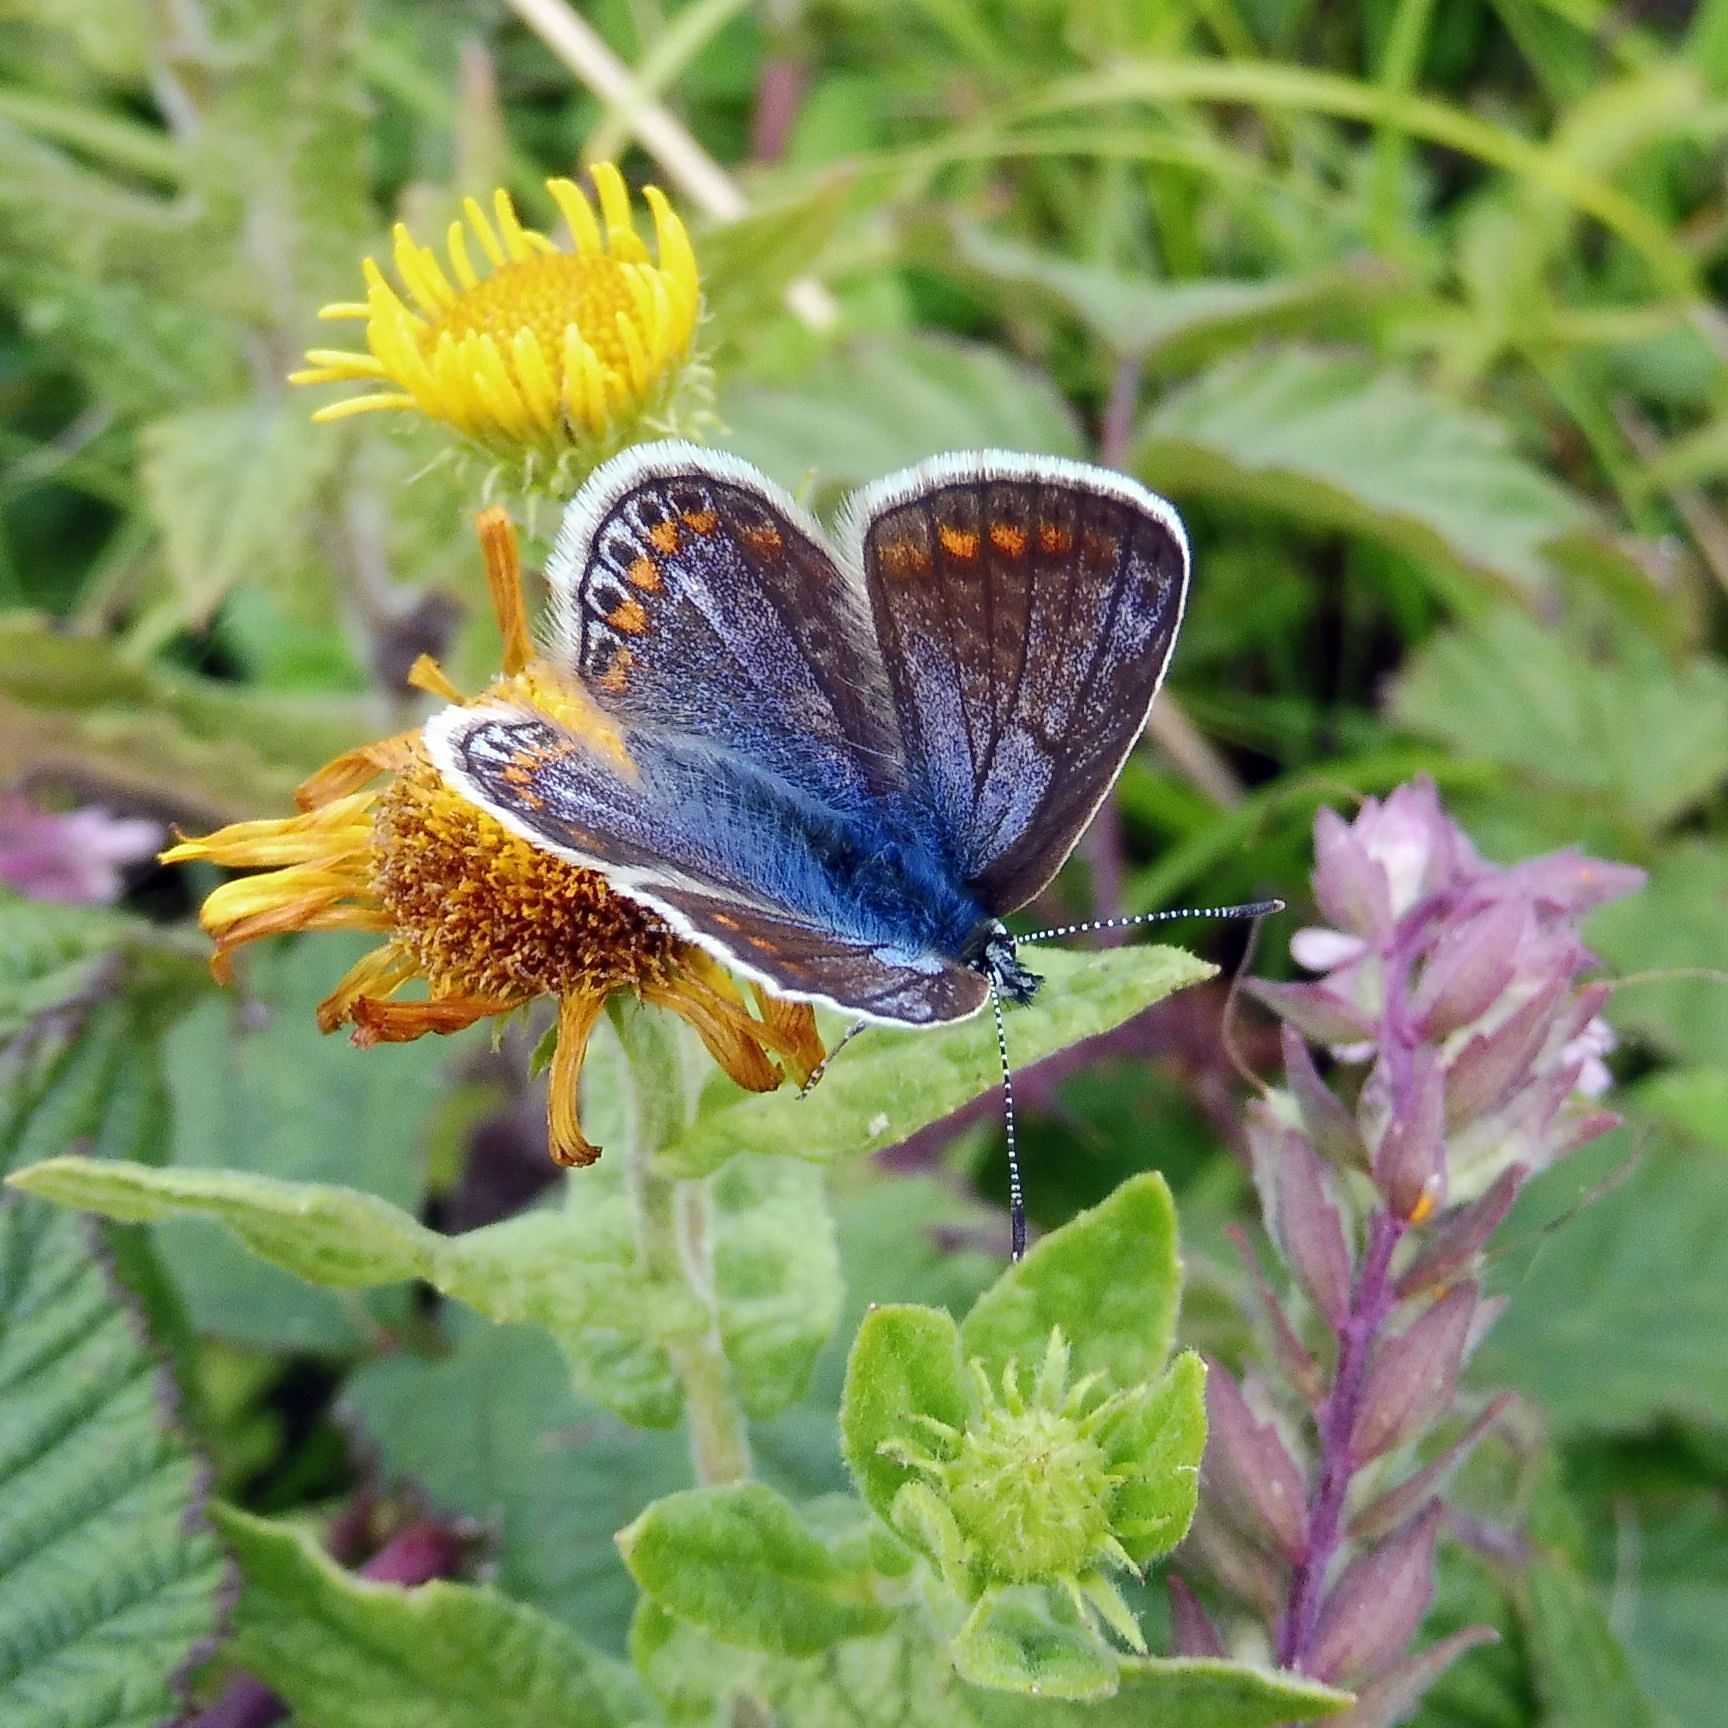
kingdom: Animalia
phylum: Arthropoda
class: Insecta
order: Lepidoptera
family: Lycaenidae
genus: Polyommatus
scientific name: Polyommatus icarus
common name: Common blue
